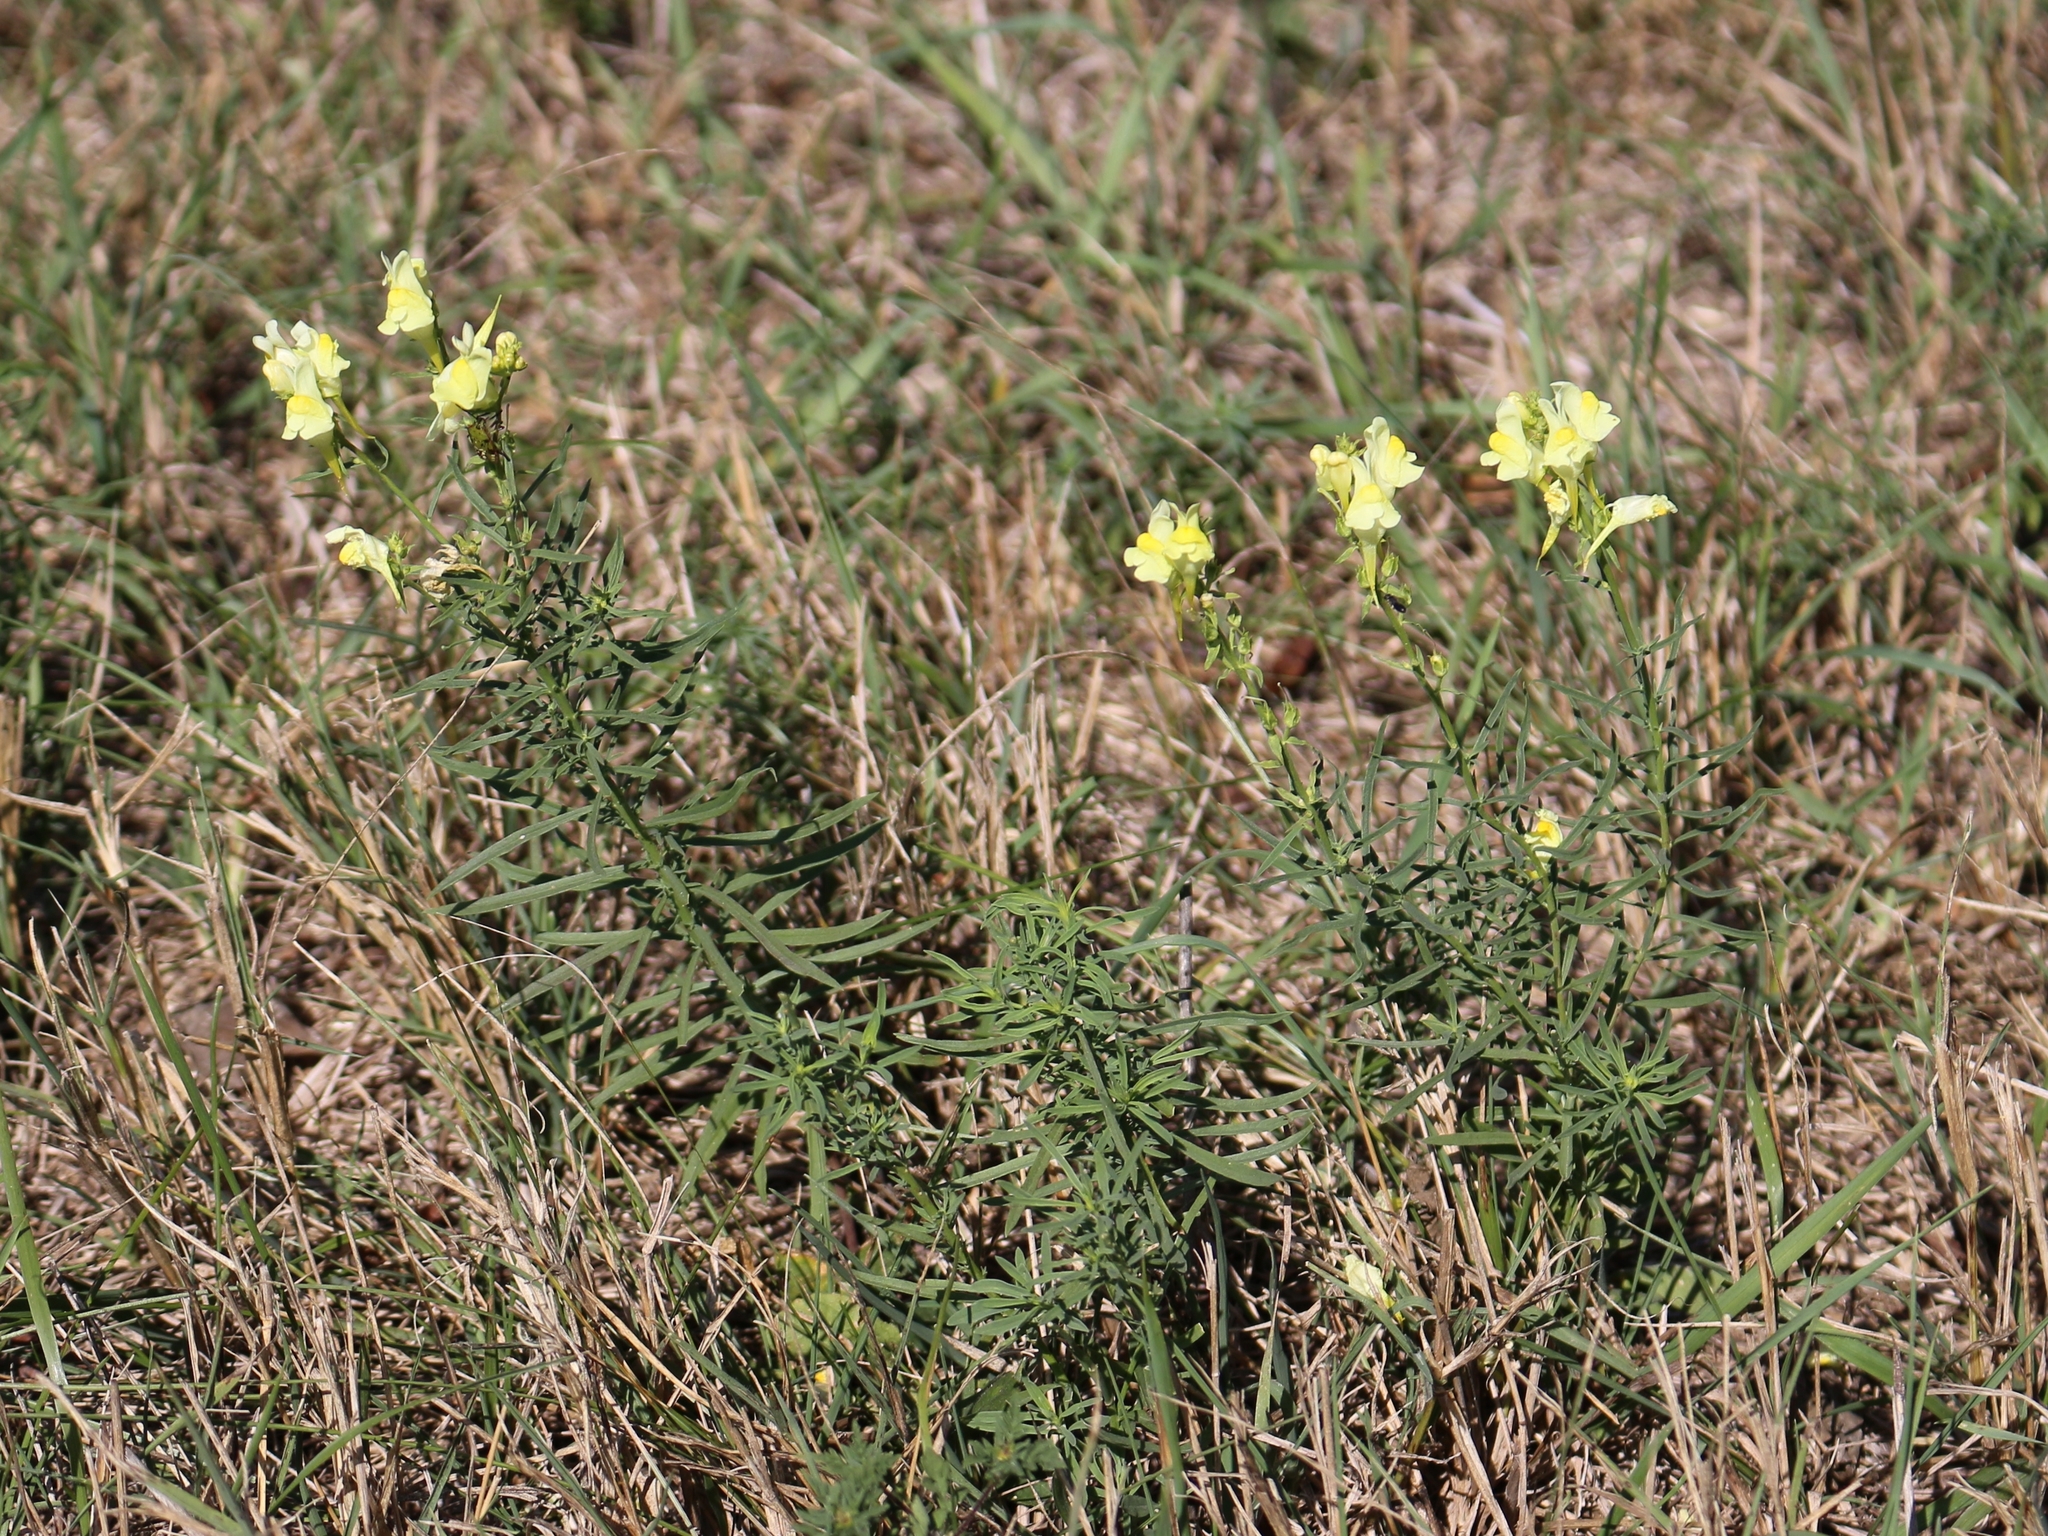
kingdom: Plantae
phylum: Tracheophyta
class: Magnoliopsida
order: Lamiales
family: Plantaginaceae
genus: Linaria
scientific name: Linaria vulgaris
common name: Butter and eggs
